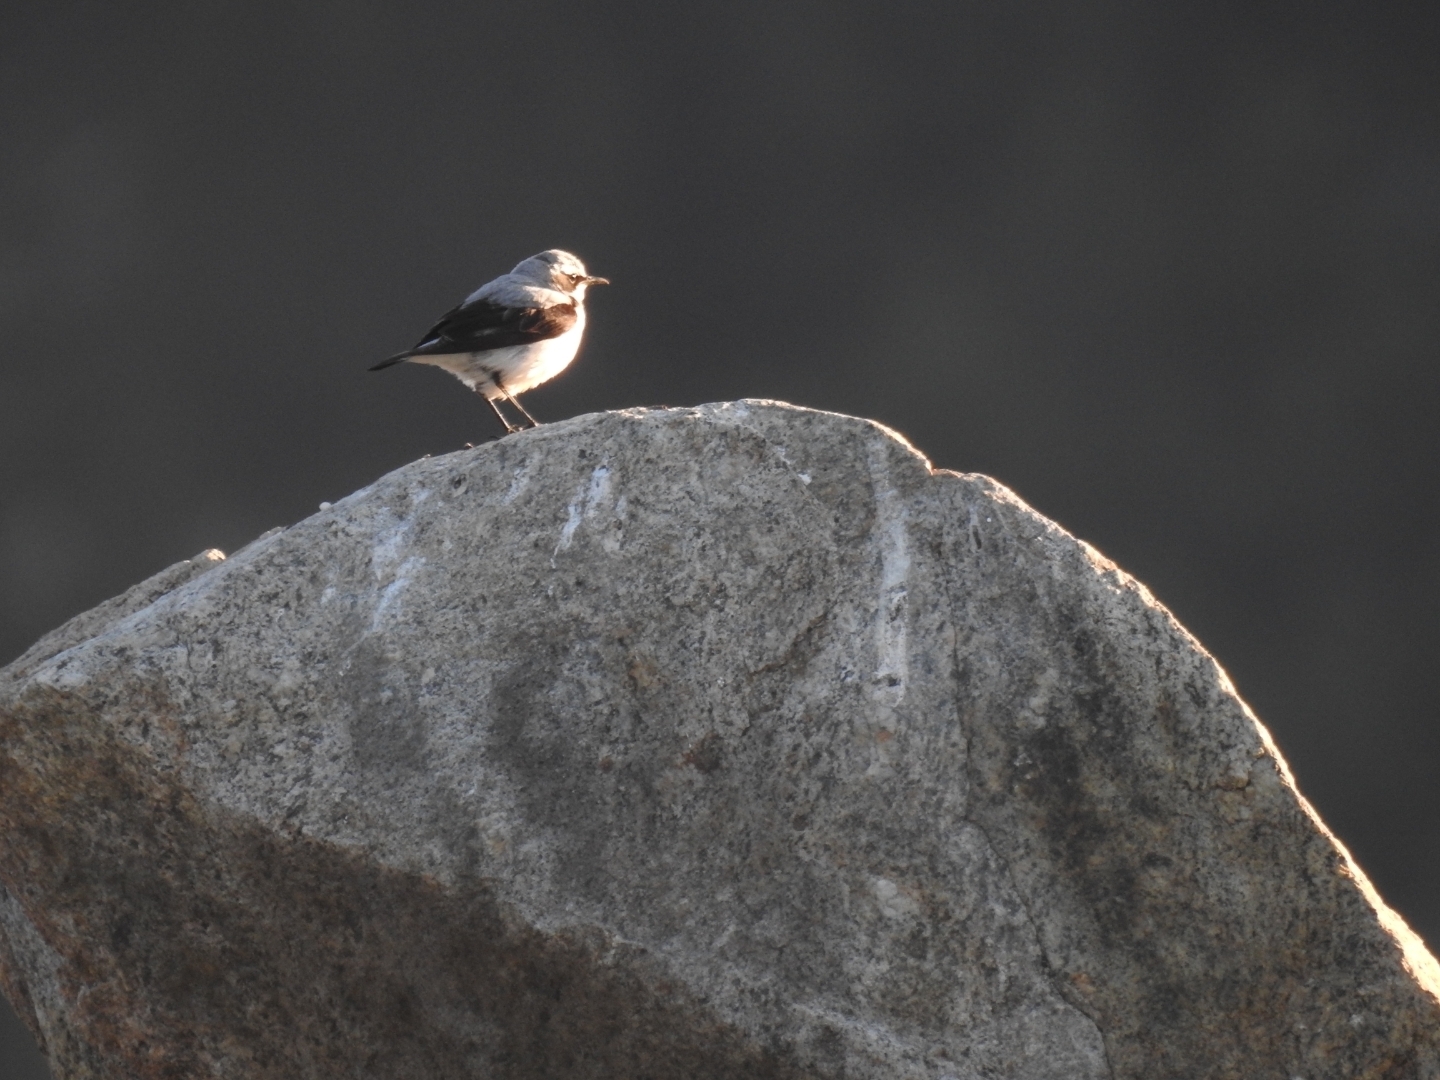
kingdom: Animalia
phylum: Chordata
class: Aves
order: Passeriformes
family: Muscicapidae
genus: Oenanthe
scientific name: Oenanthe oenanthe
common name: Northern wheatear
